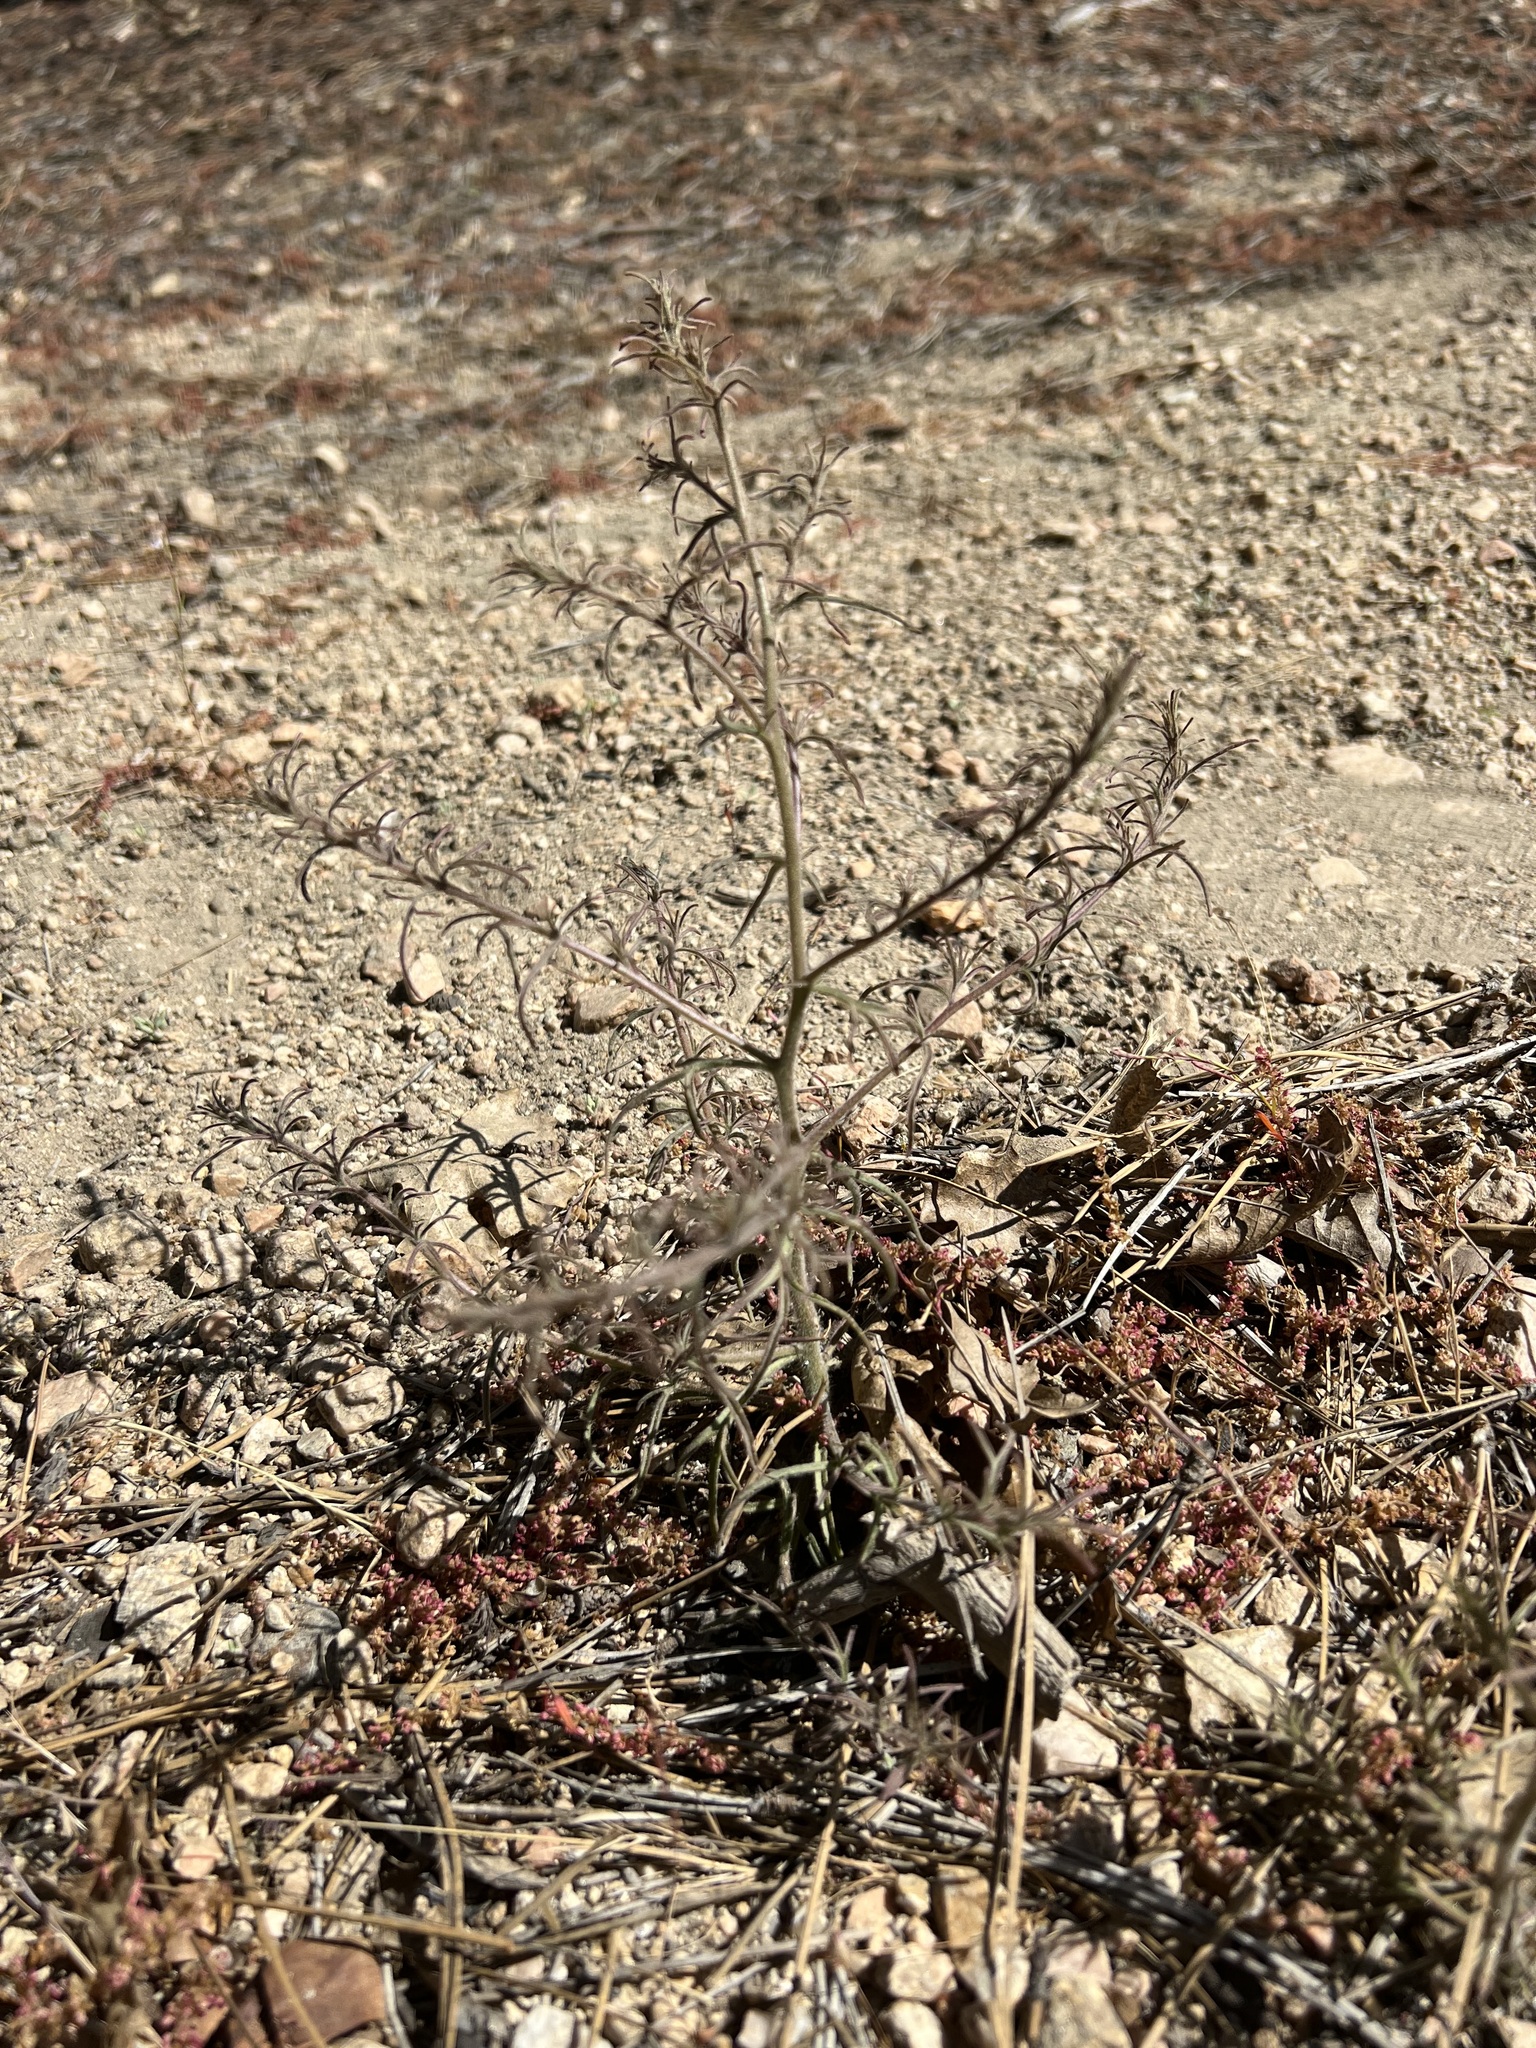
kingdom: Plantae
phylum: Tracheophyta
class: Magnoliopsida
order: Lamiales
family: Orobanchaceae
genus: Cordylanthus
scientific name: Cordylanthus nevinii
